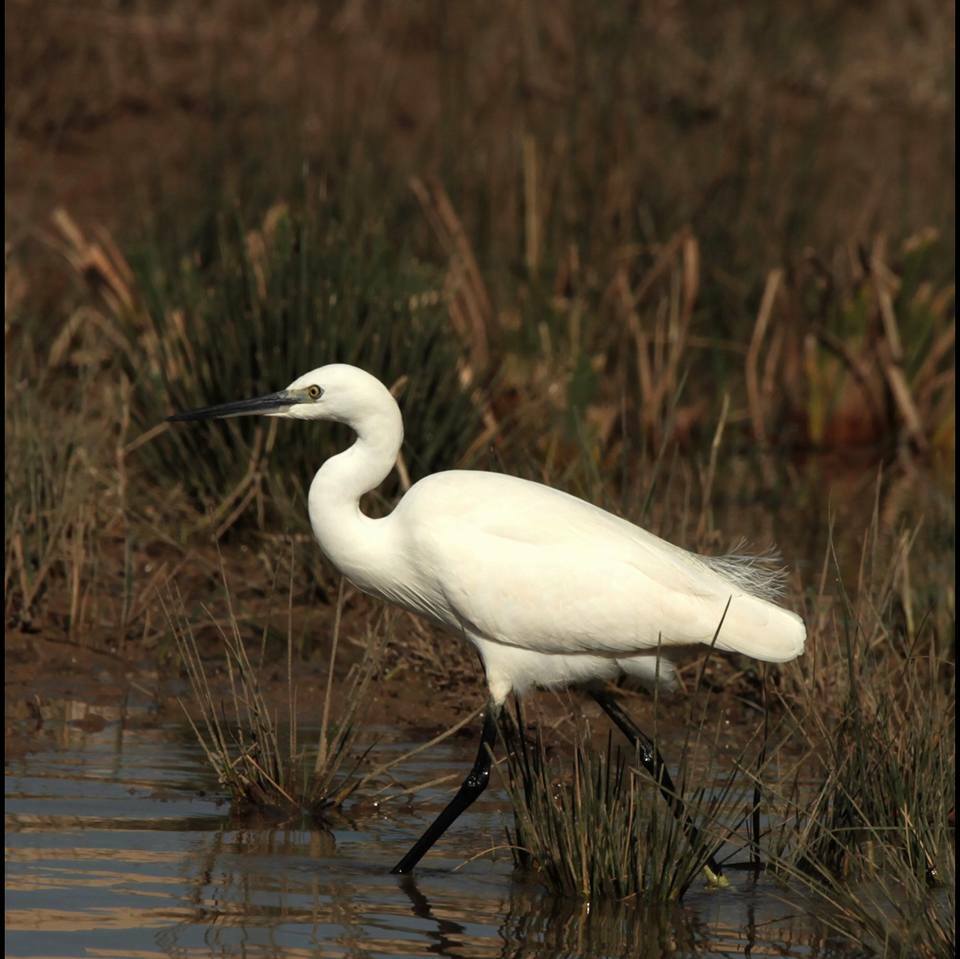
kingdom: Animalia
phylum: Chordata
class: Aves
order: Pelecaniformes
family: Ardeidae
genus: Egretta
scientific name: Egretta garzetta
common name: Little egret
